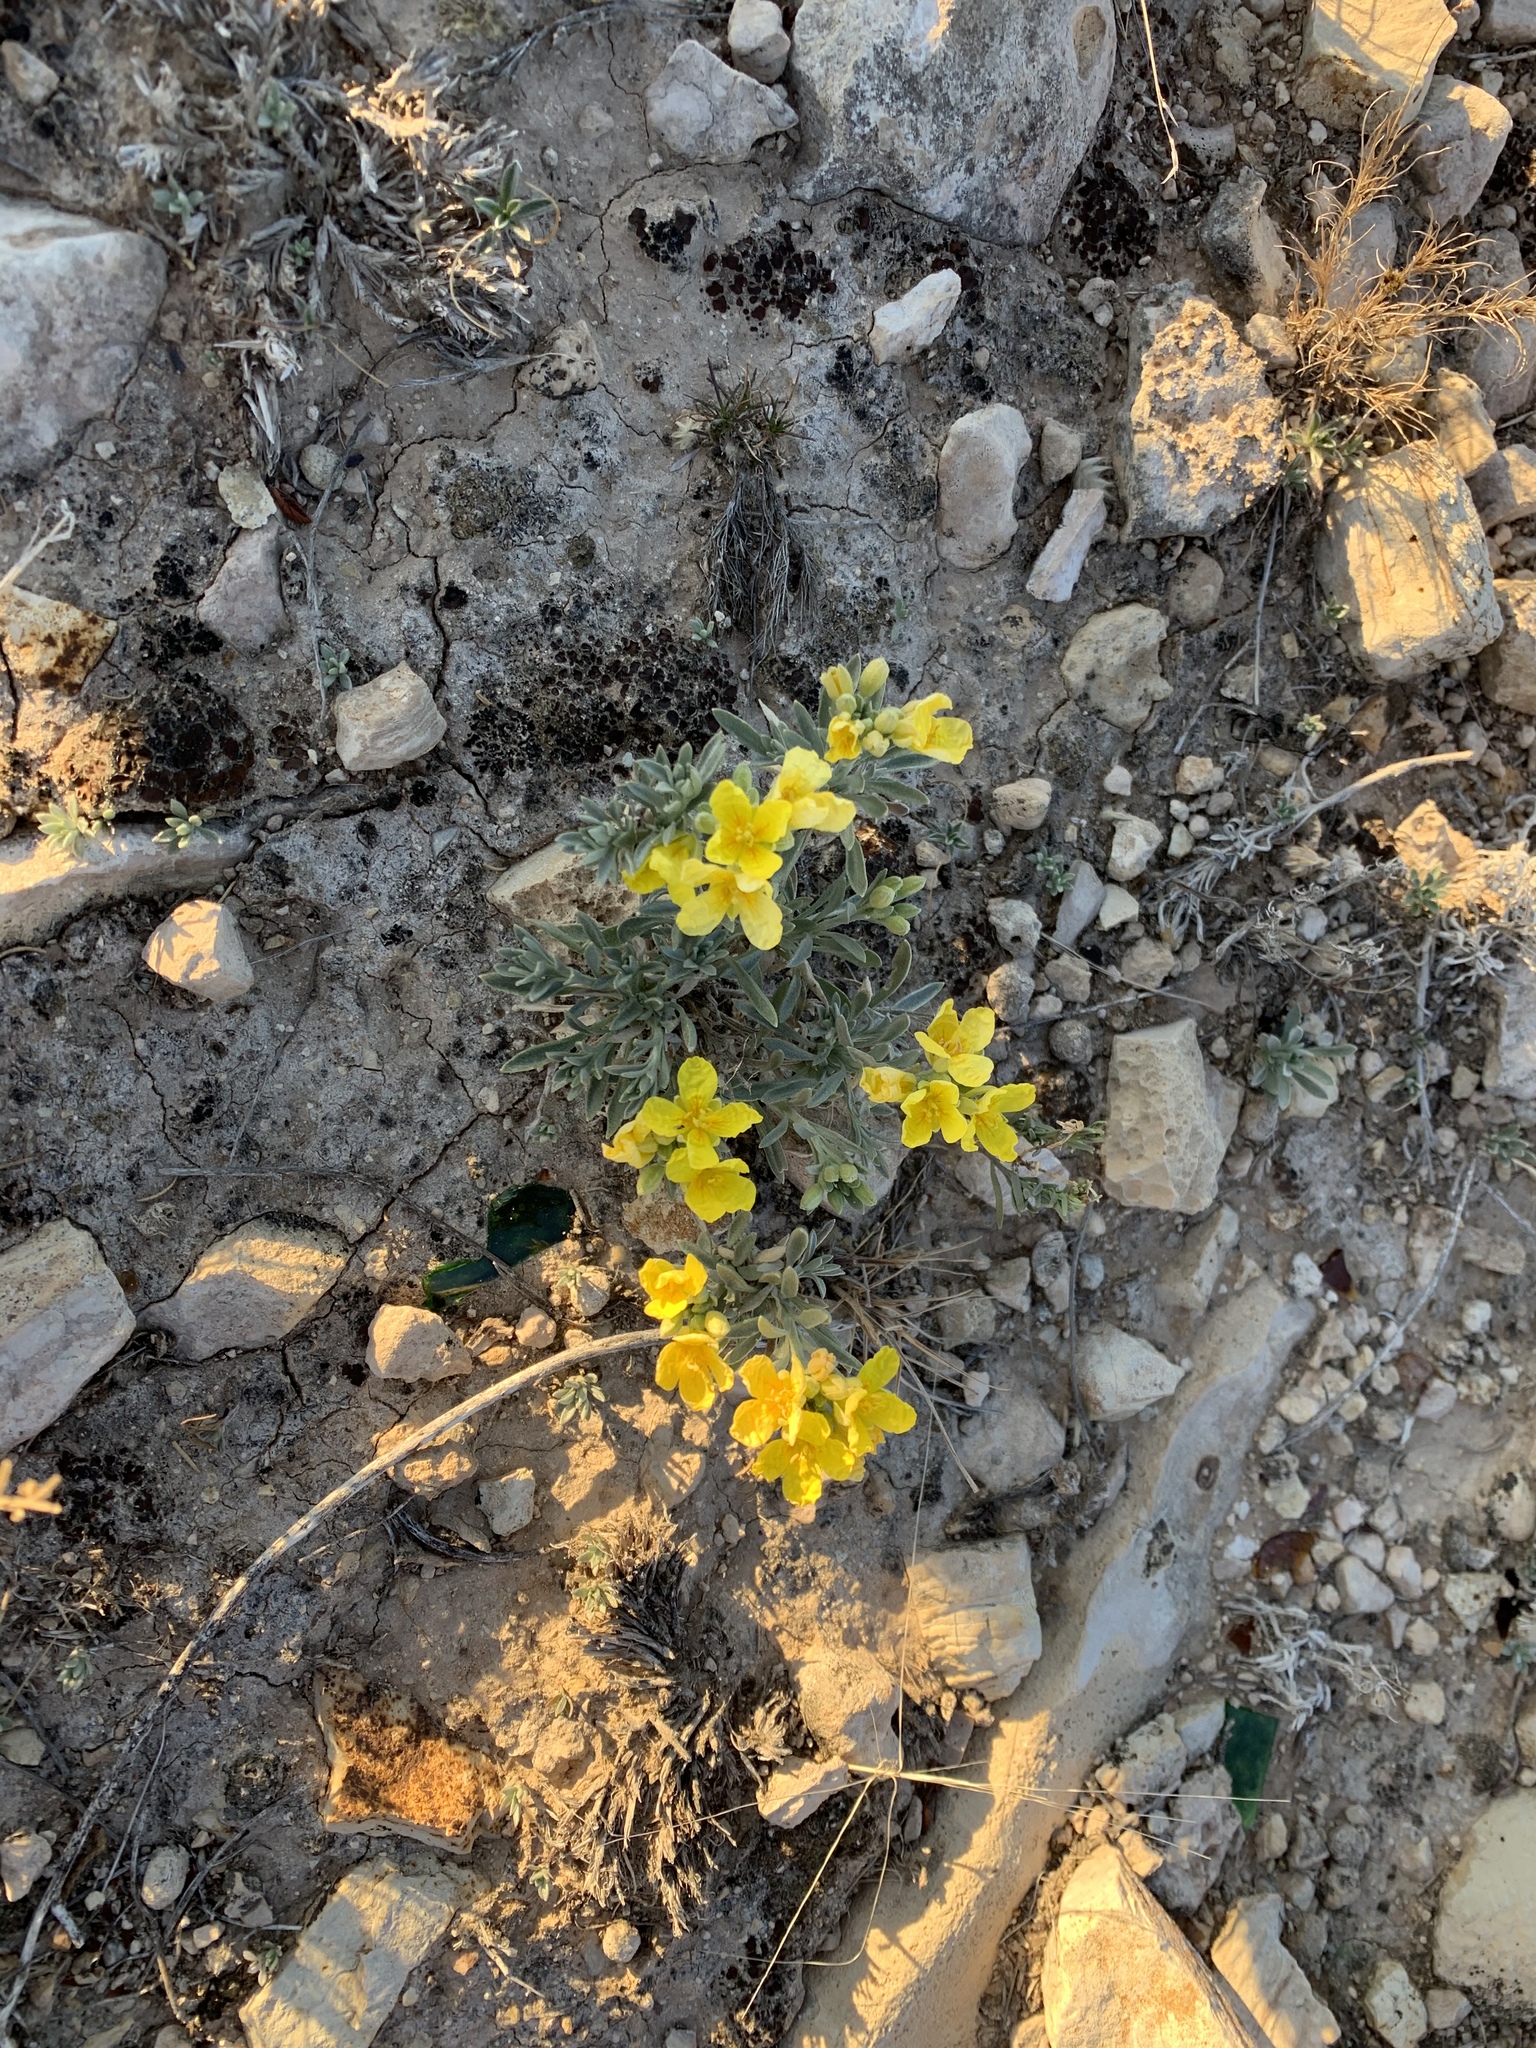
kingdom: Plantae
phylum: Tracheophyta
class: Magnoliopsida
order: Brassicales
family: Brassicaceae
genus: Physaria
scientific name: Physaria fendleri
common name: Fendler's bladderpod
